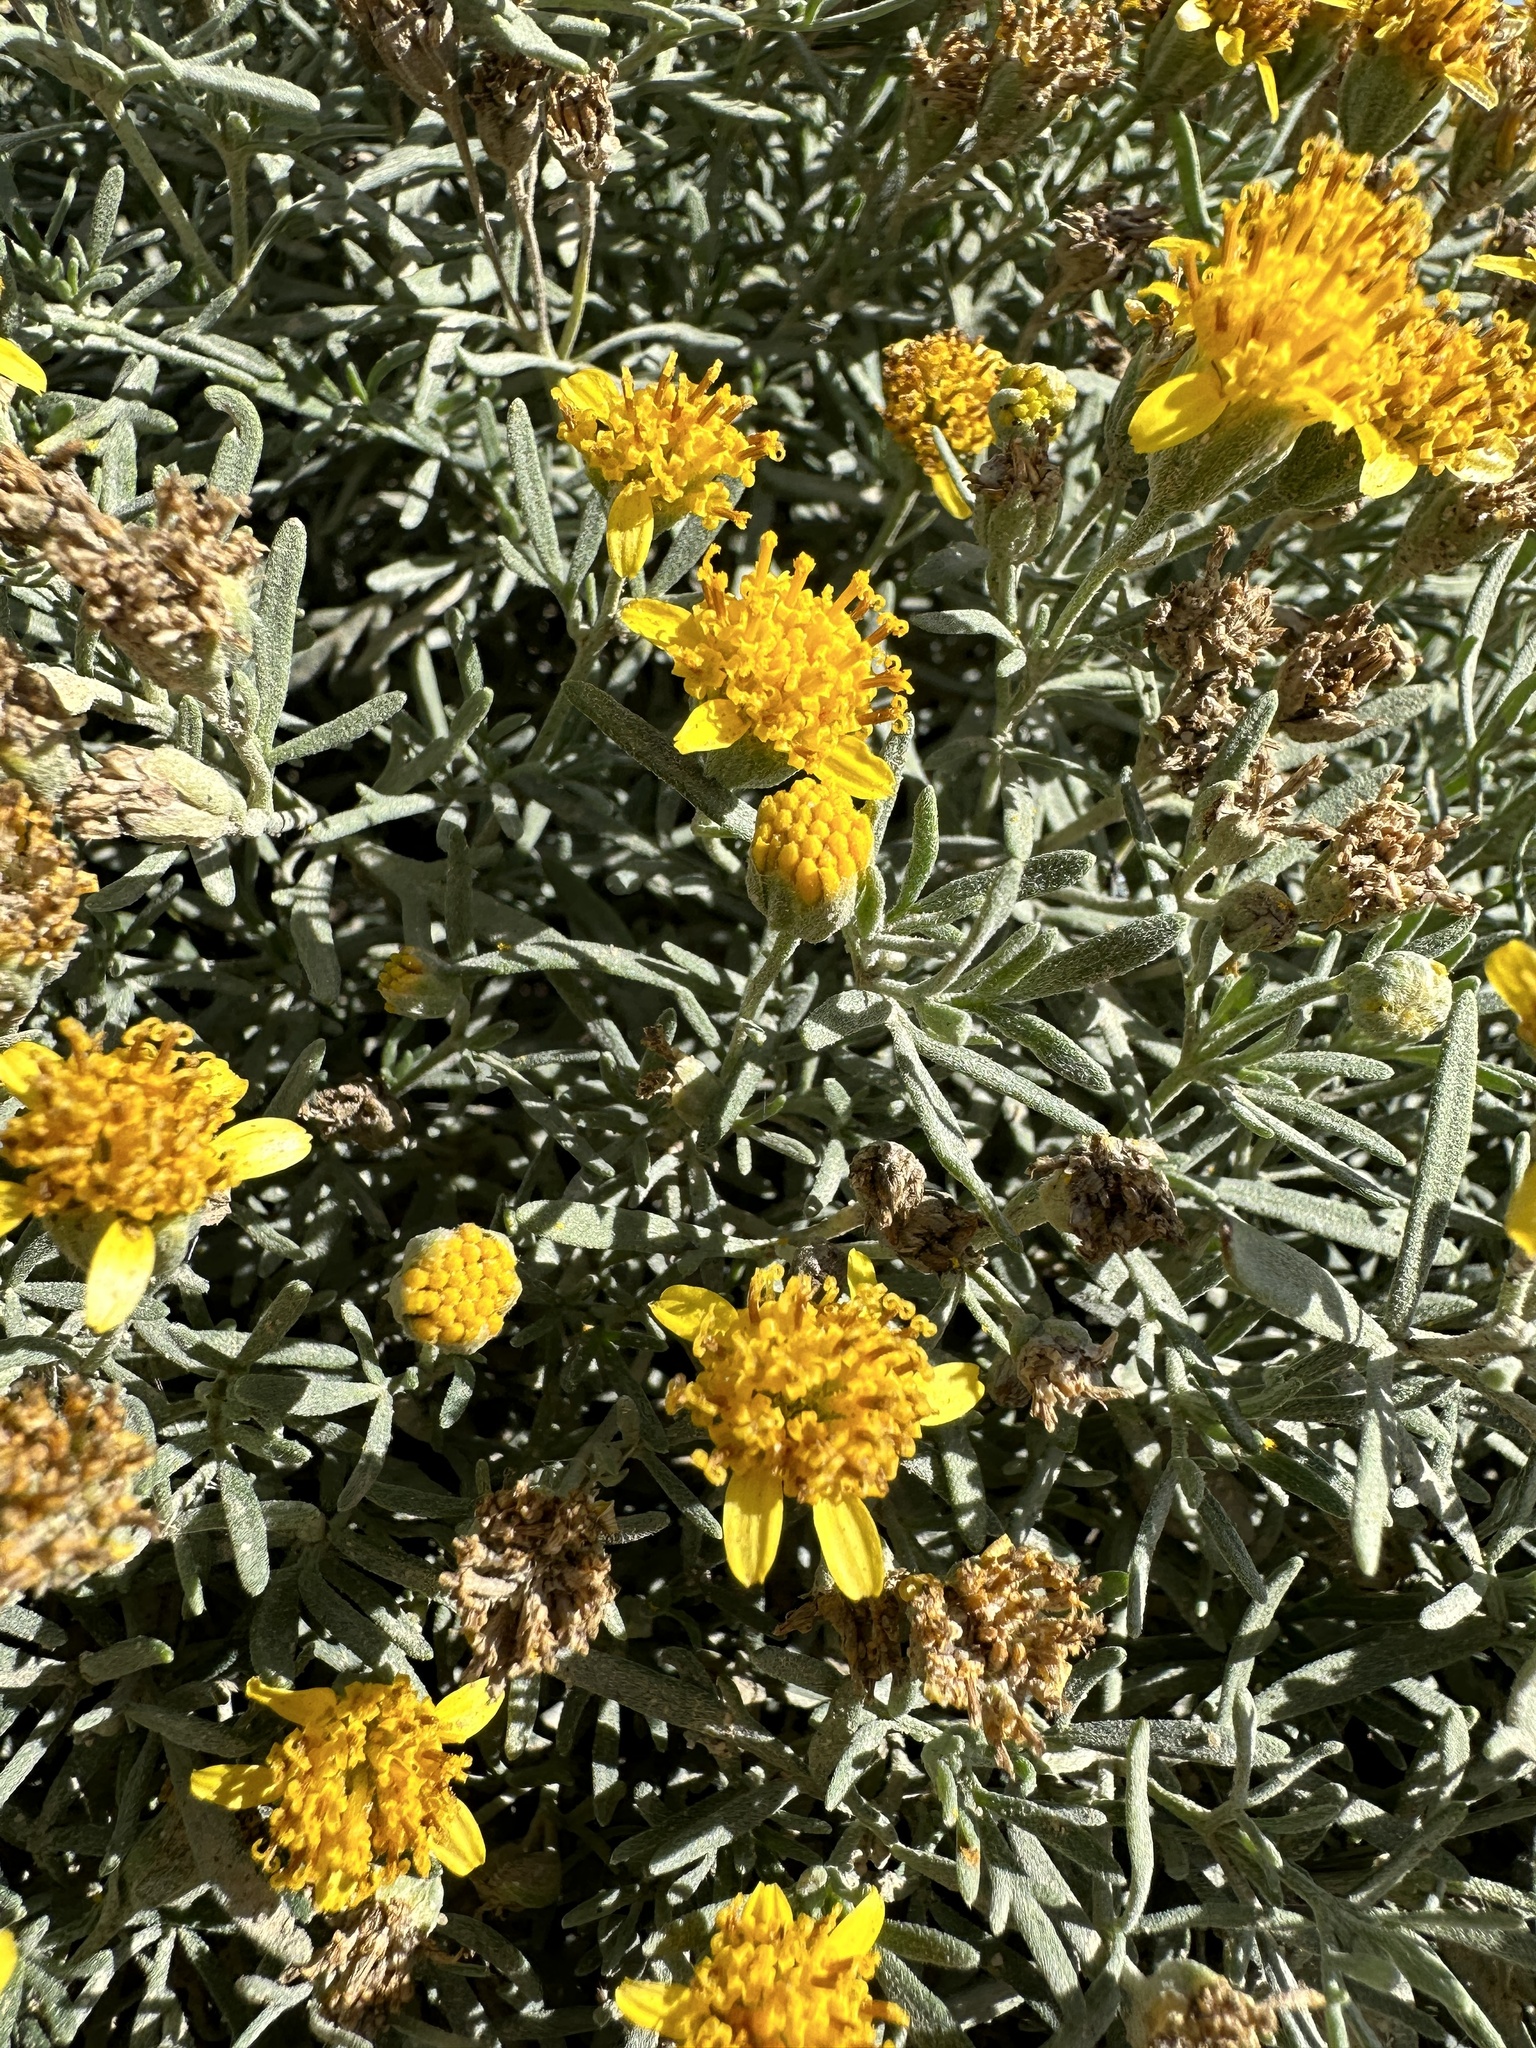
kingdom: Plantae
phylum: Tracheophyta
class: Magnoliopsida
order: Asterales
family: Asteraceae
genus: Picradeniopsis
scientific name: Picradeniopsis oppositifolia
